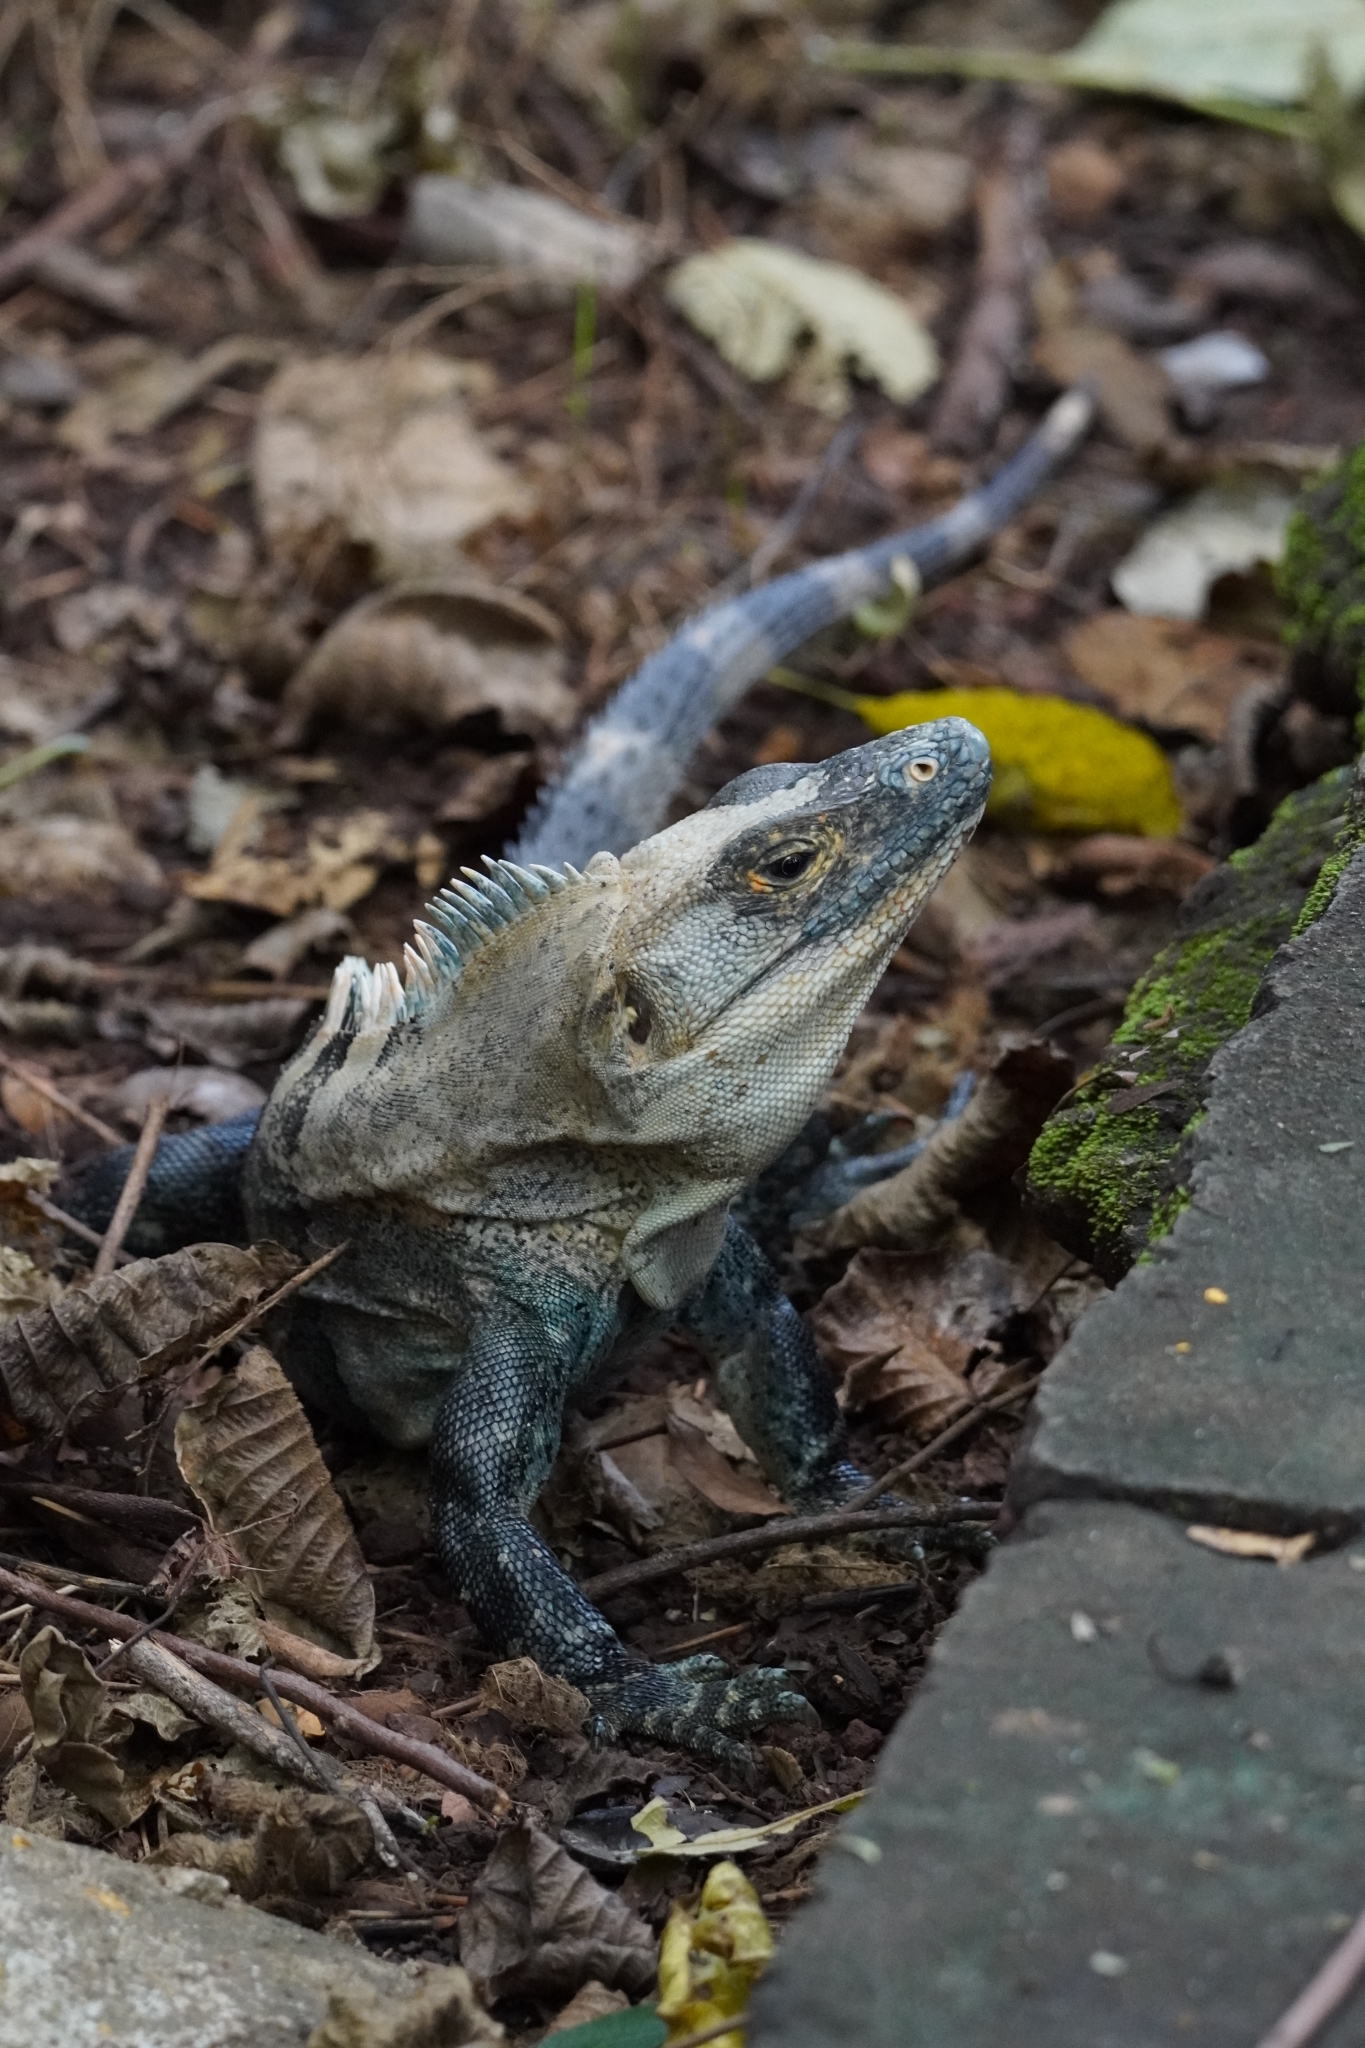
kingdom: Animalia
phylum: Chordata
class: Squamata
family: Iguanidae
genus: Ctenosaura
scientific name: Ctenosaura similis
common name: Black spiny-tailed iguana
